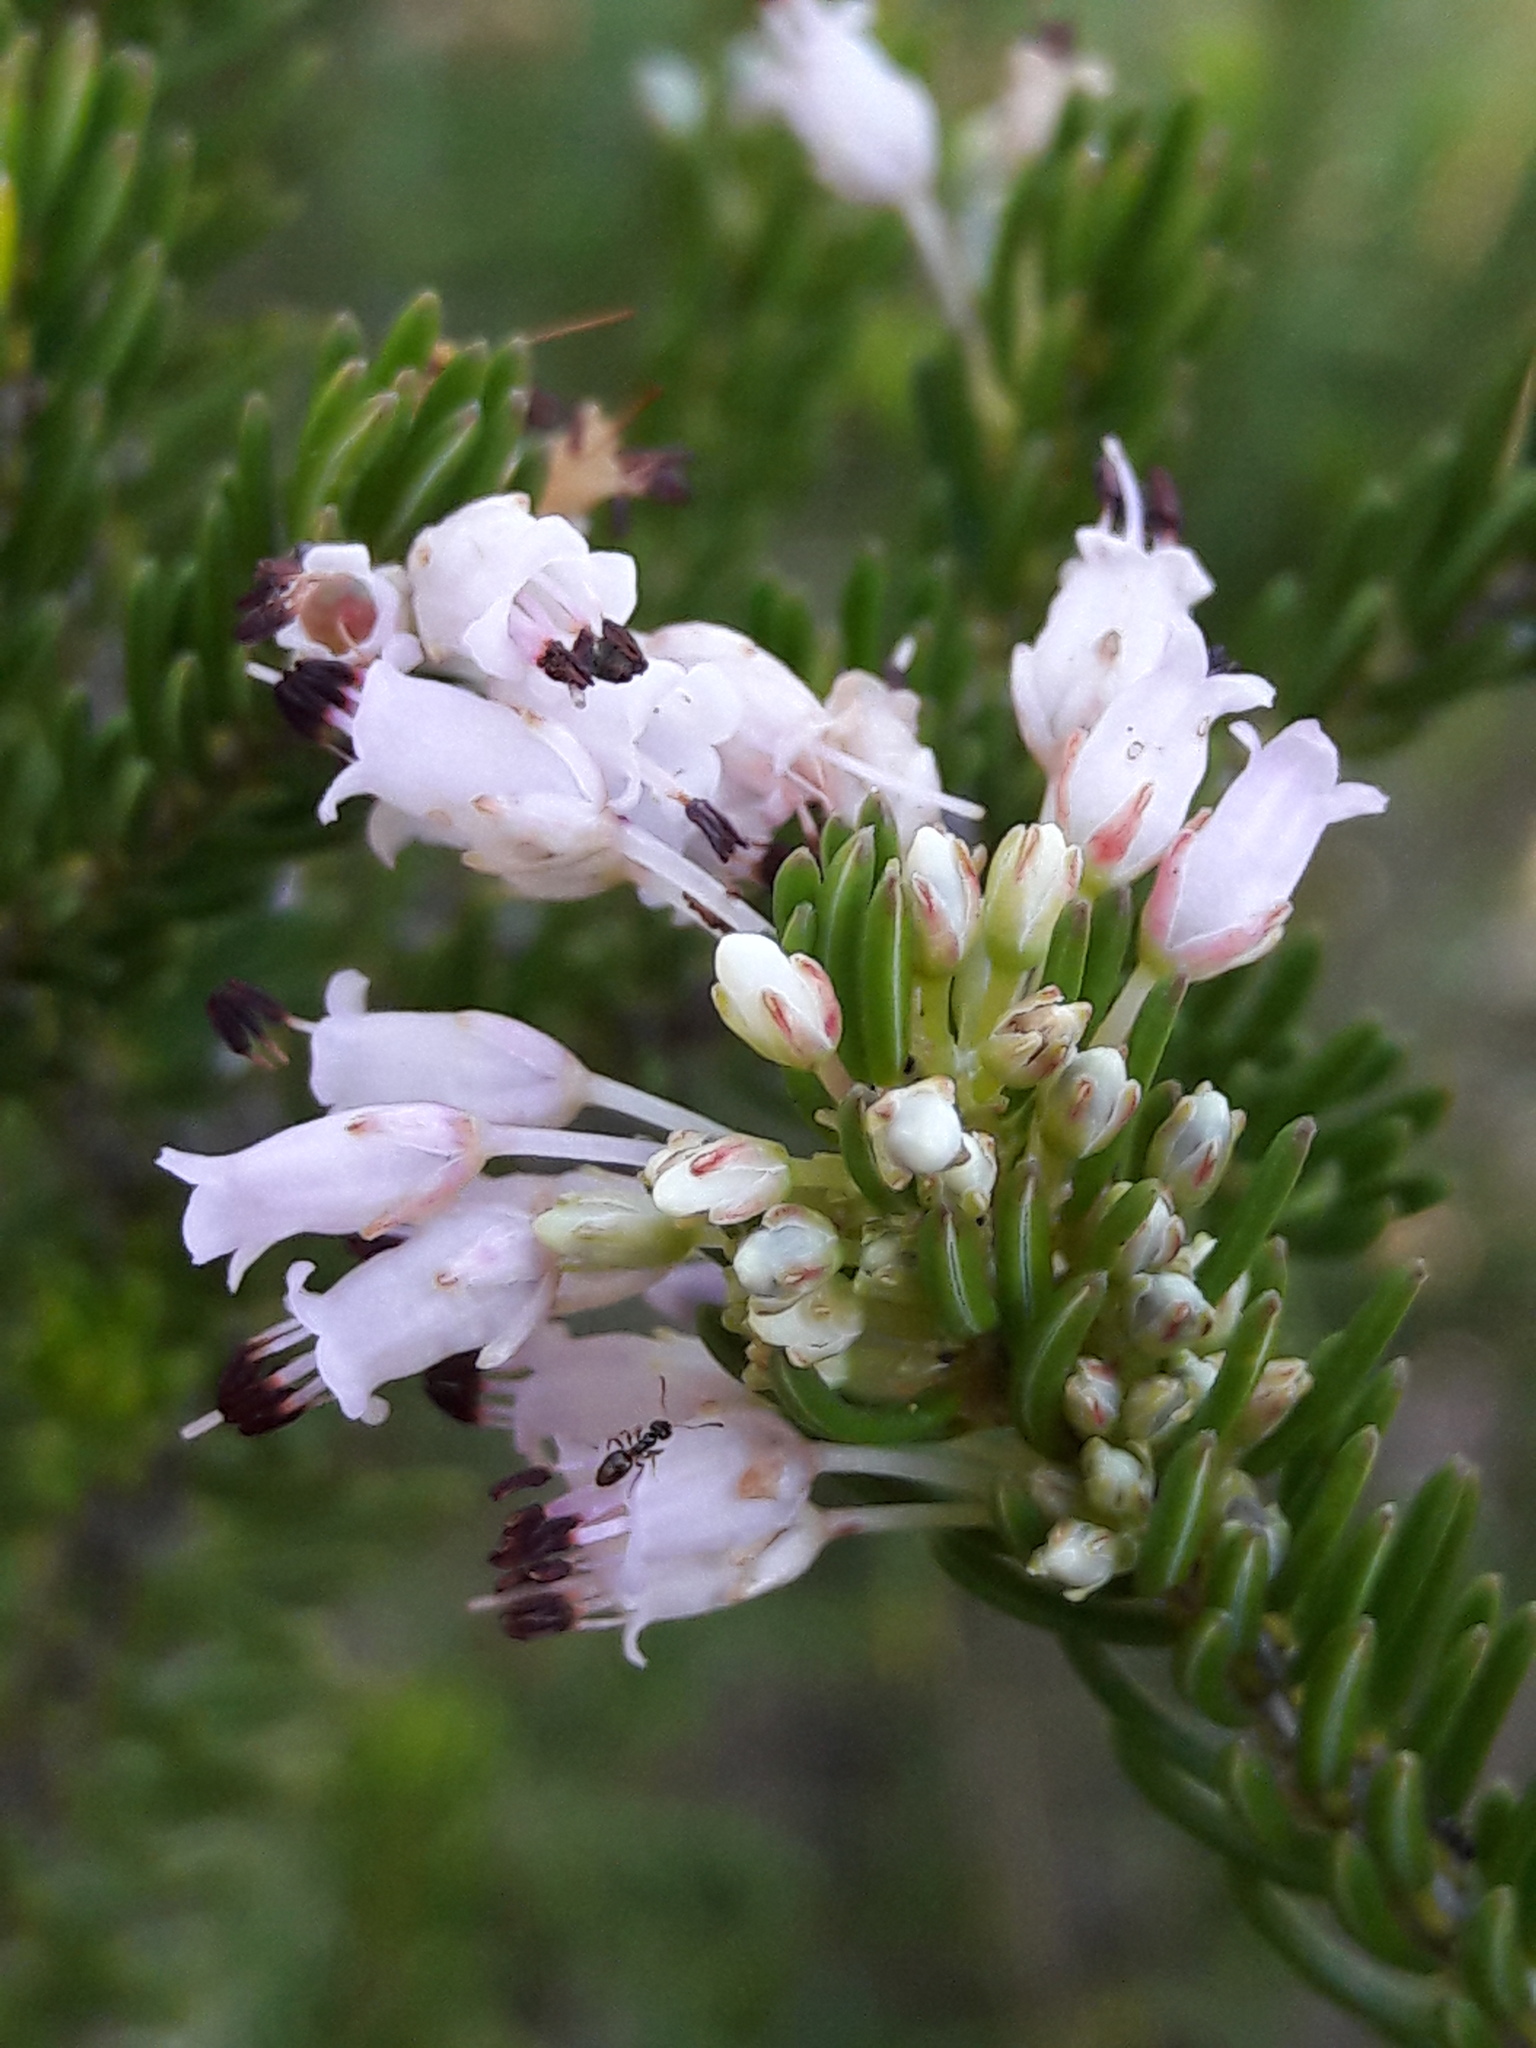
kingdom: Plantae
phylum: Tracheophyta
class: Magnoliopsida
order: Ericales
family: Ericaceae
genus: Erica
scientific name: Erica multiflora
